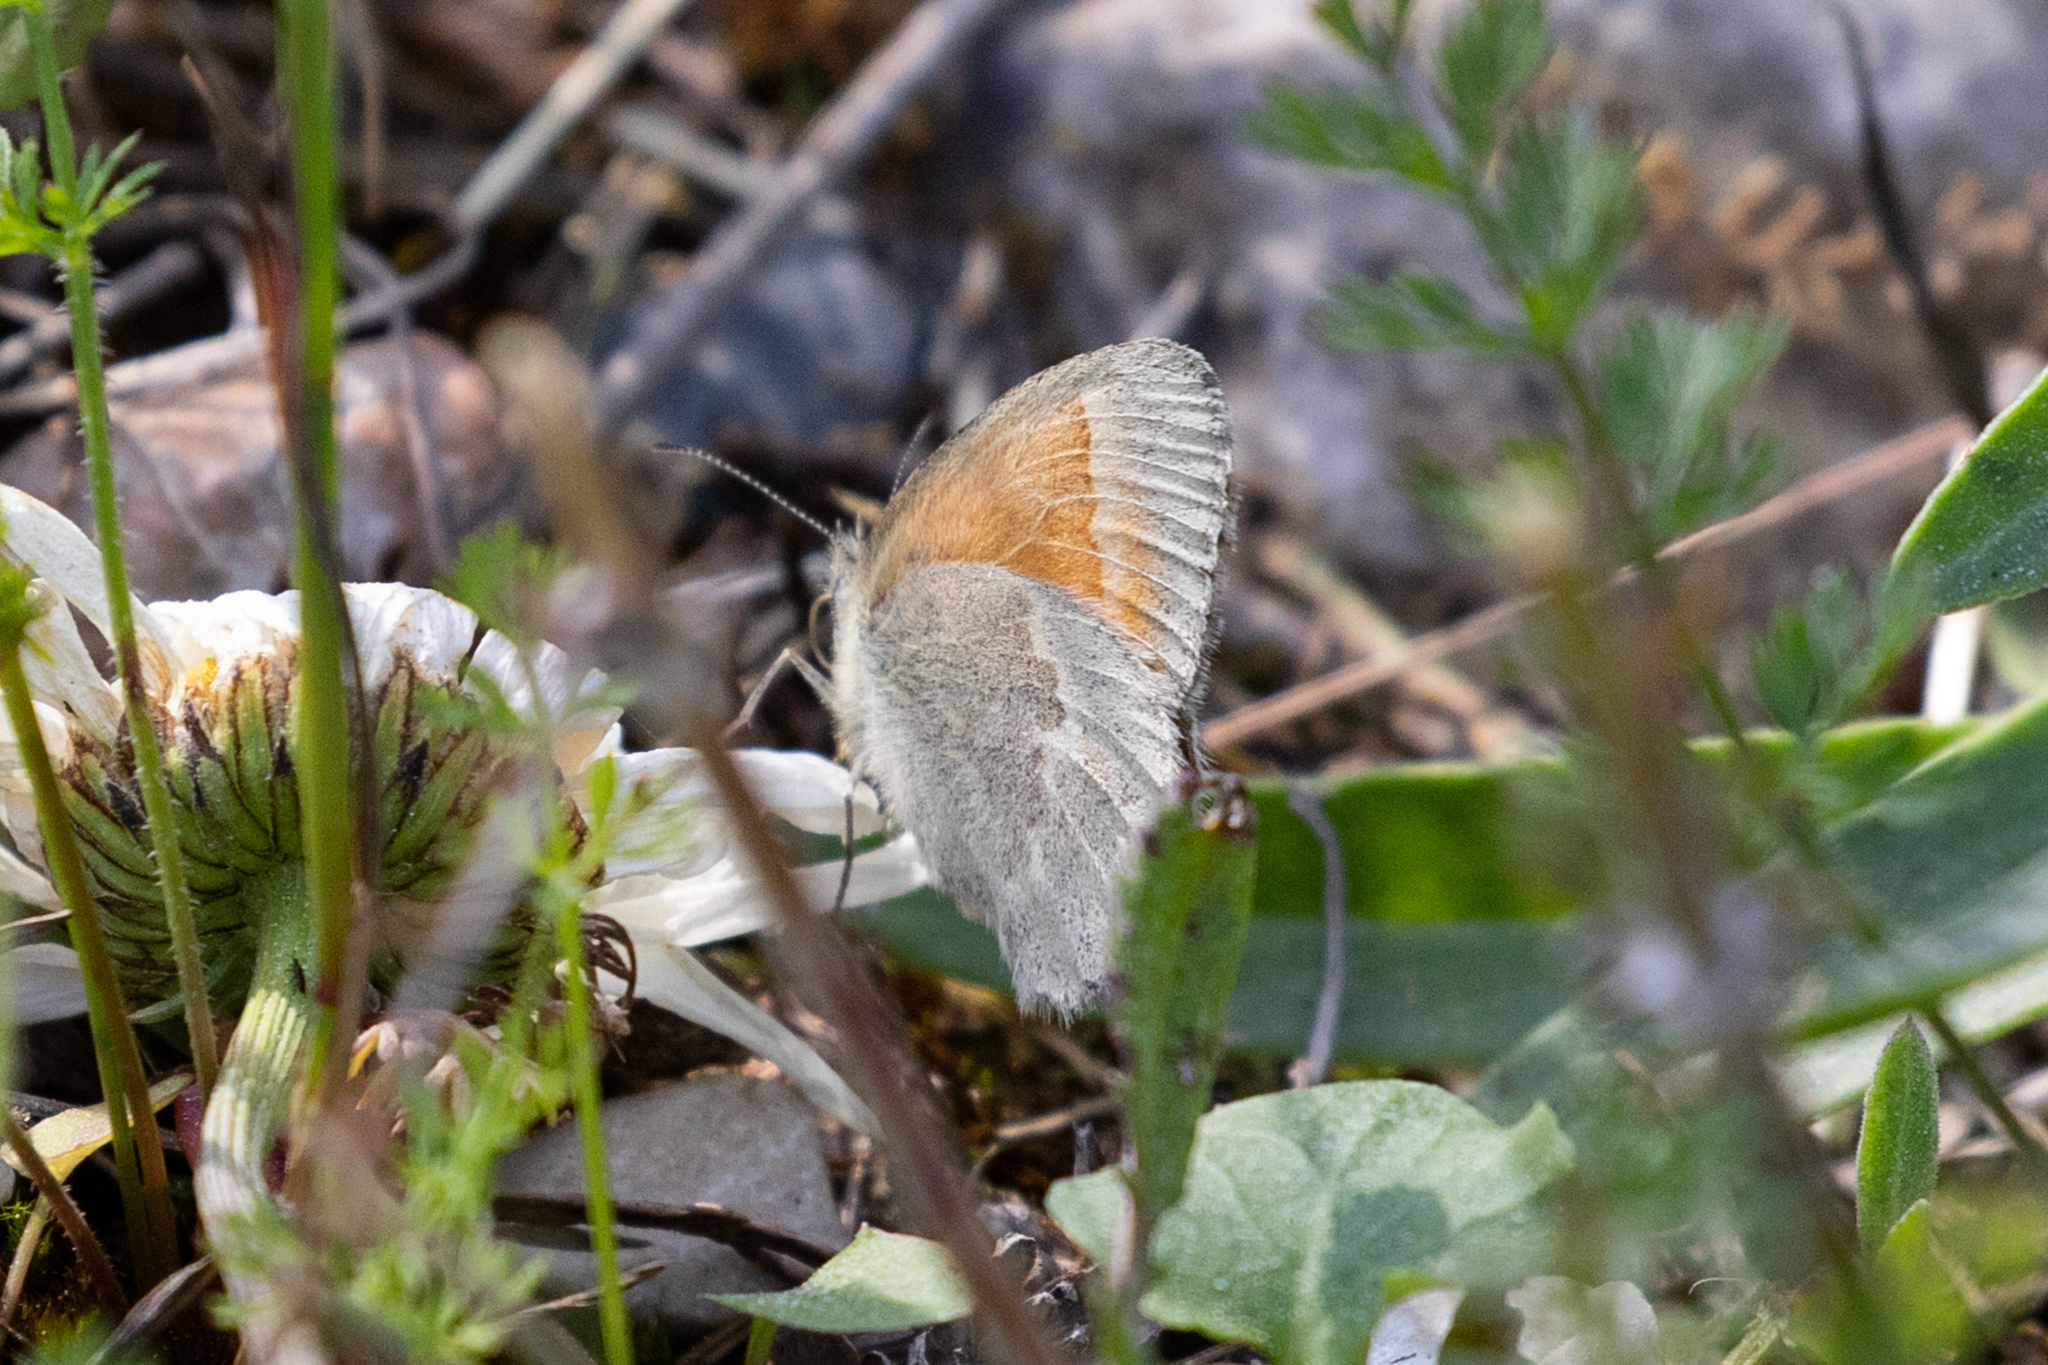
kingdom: Animalia
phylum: Arthropoda
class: Insecta
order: Lepidoptera
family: Nymphalidae
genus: Coenonympha
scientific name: Coenonympha california
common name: Common ringlet
